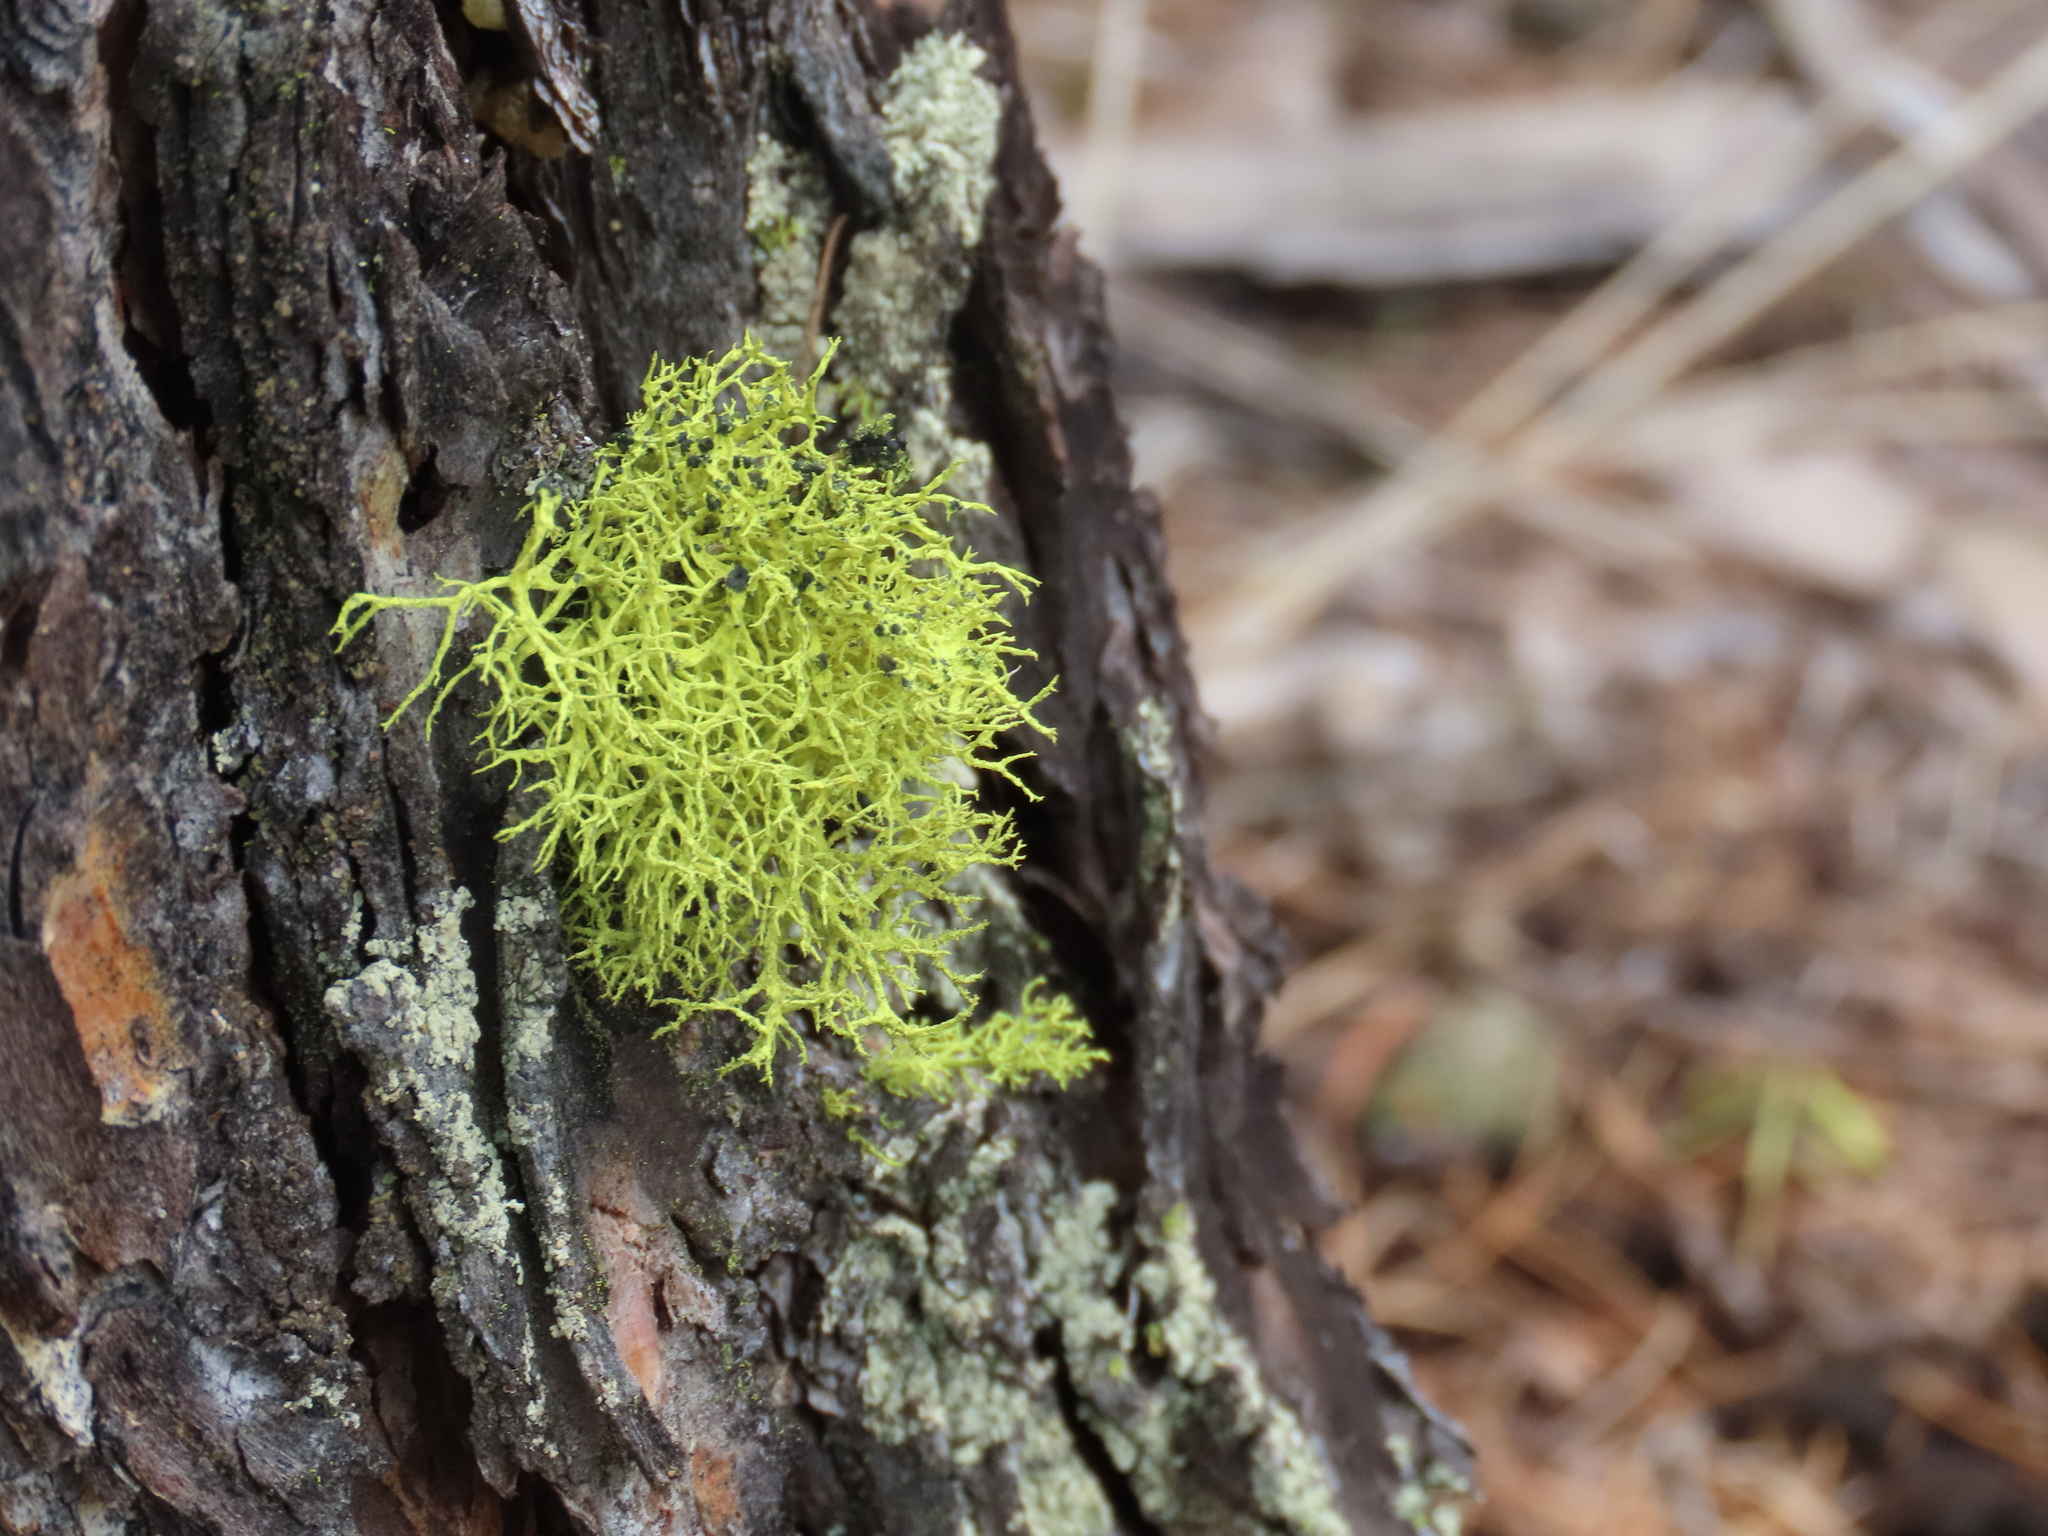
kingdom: Fungi
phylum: Ascomycota
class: Lecanoromycetes
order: Lecanorales
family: Parmeliaceae
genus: Letharia
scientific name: Letharia vulpina
